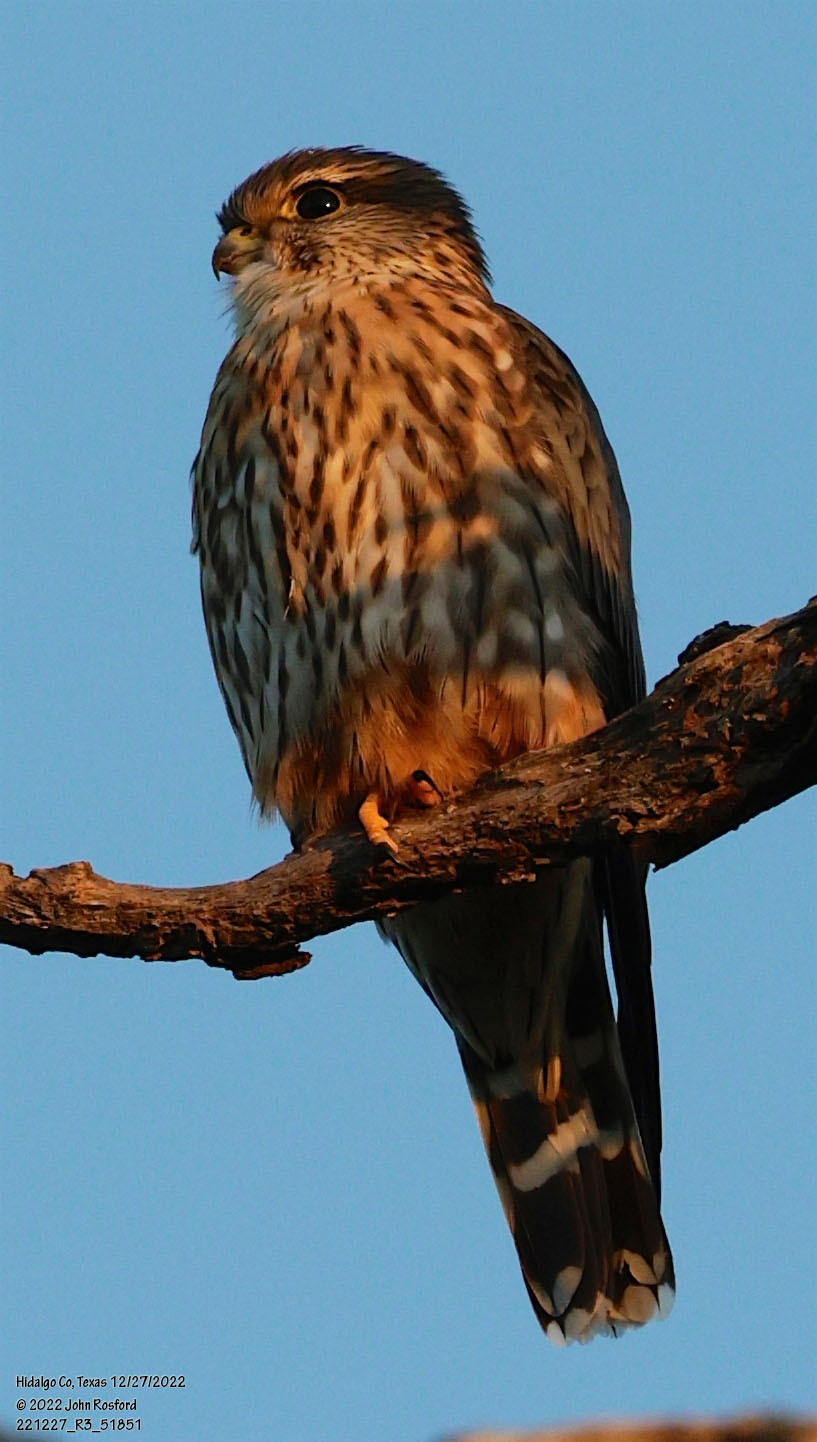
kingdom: Animalia
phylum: Chordata
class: Aves
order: Falconiformes
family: Falconidae
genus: Falco
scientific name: Falco columbarius
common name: Merlin
